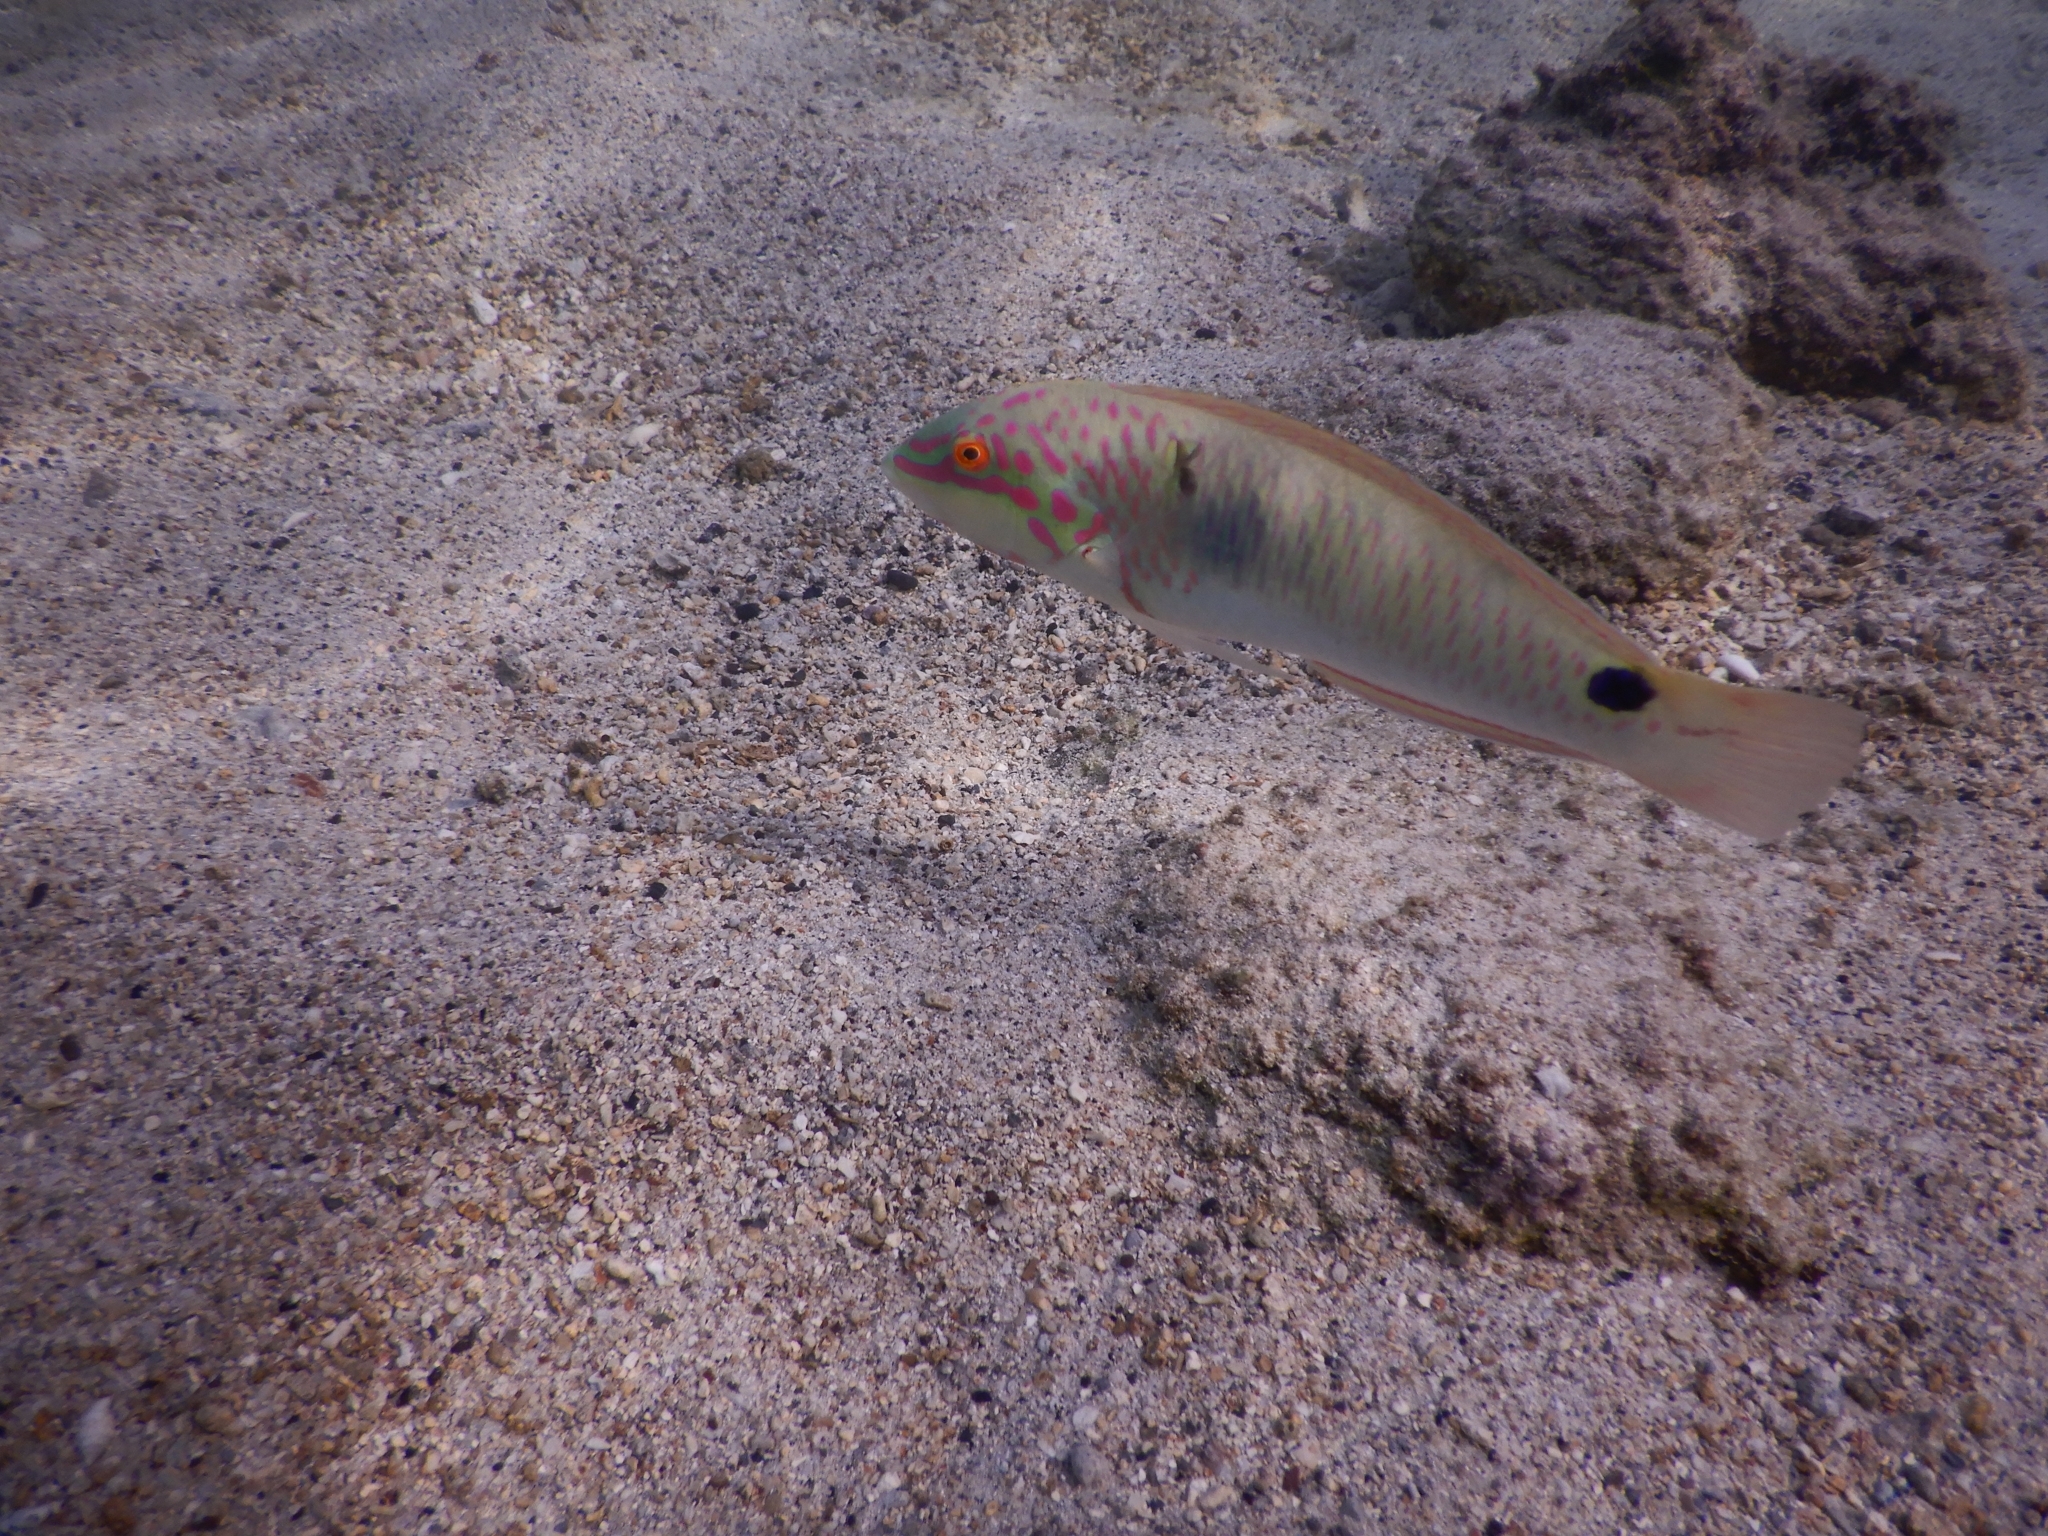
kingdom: Animalia
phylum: Chordata
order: Perciformes
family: Labridae
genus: Halichoeres
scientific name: Halichoeres trimaculatus
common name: Three-spot wrasse
